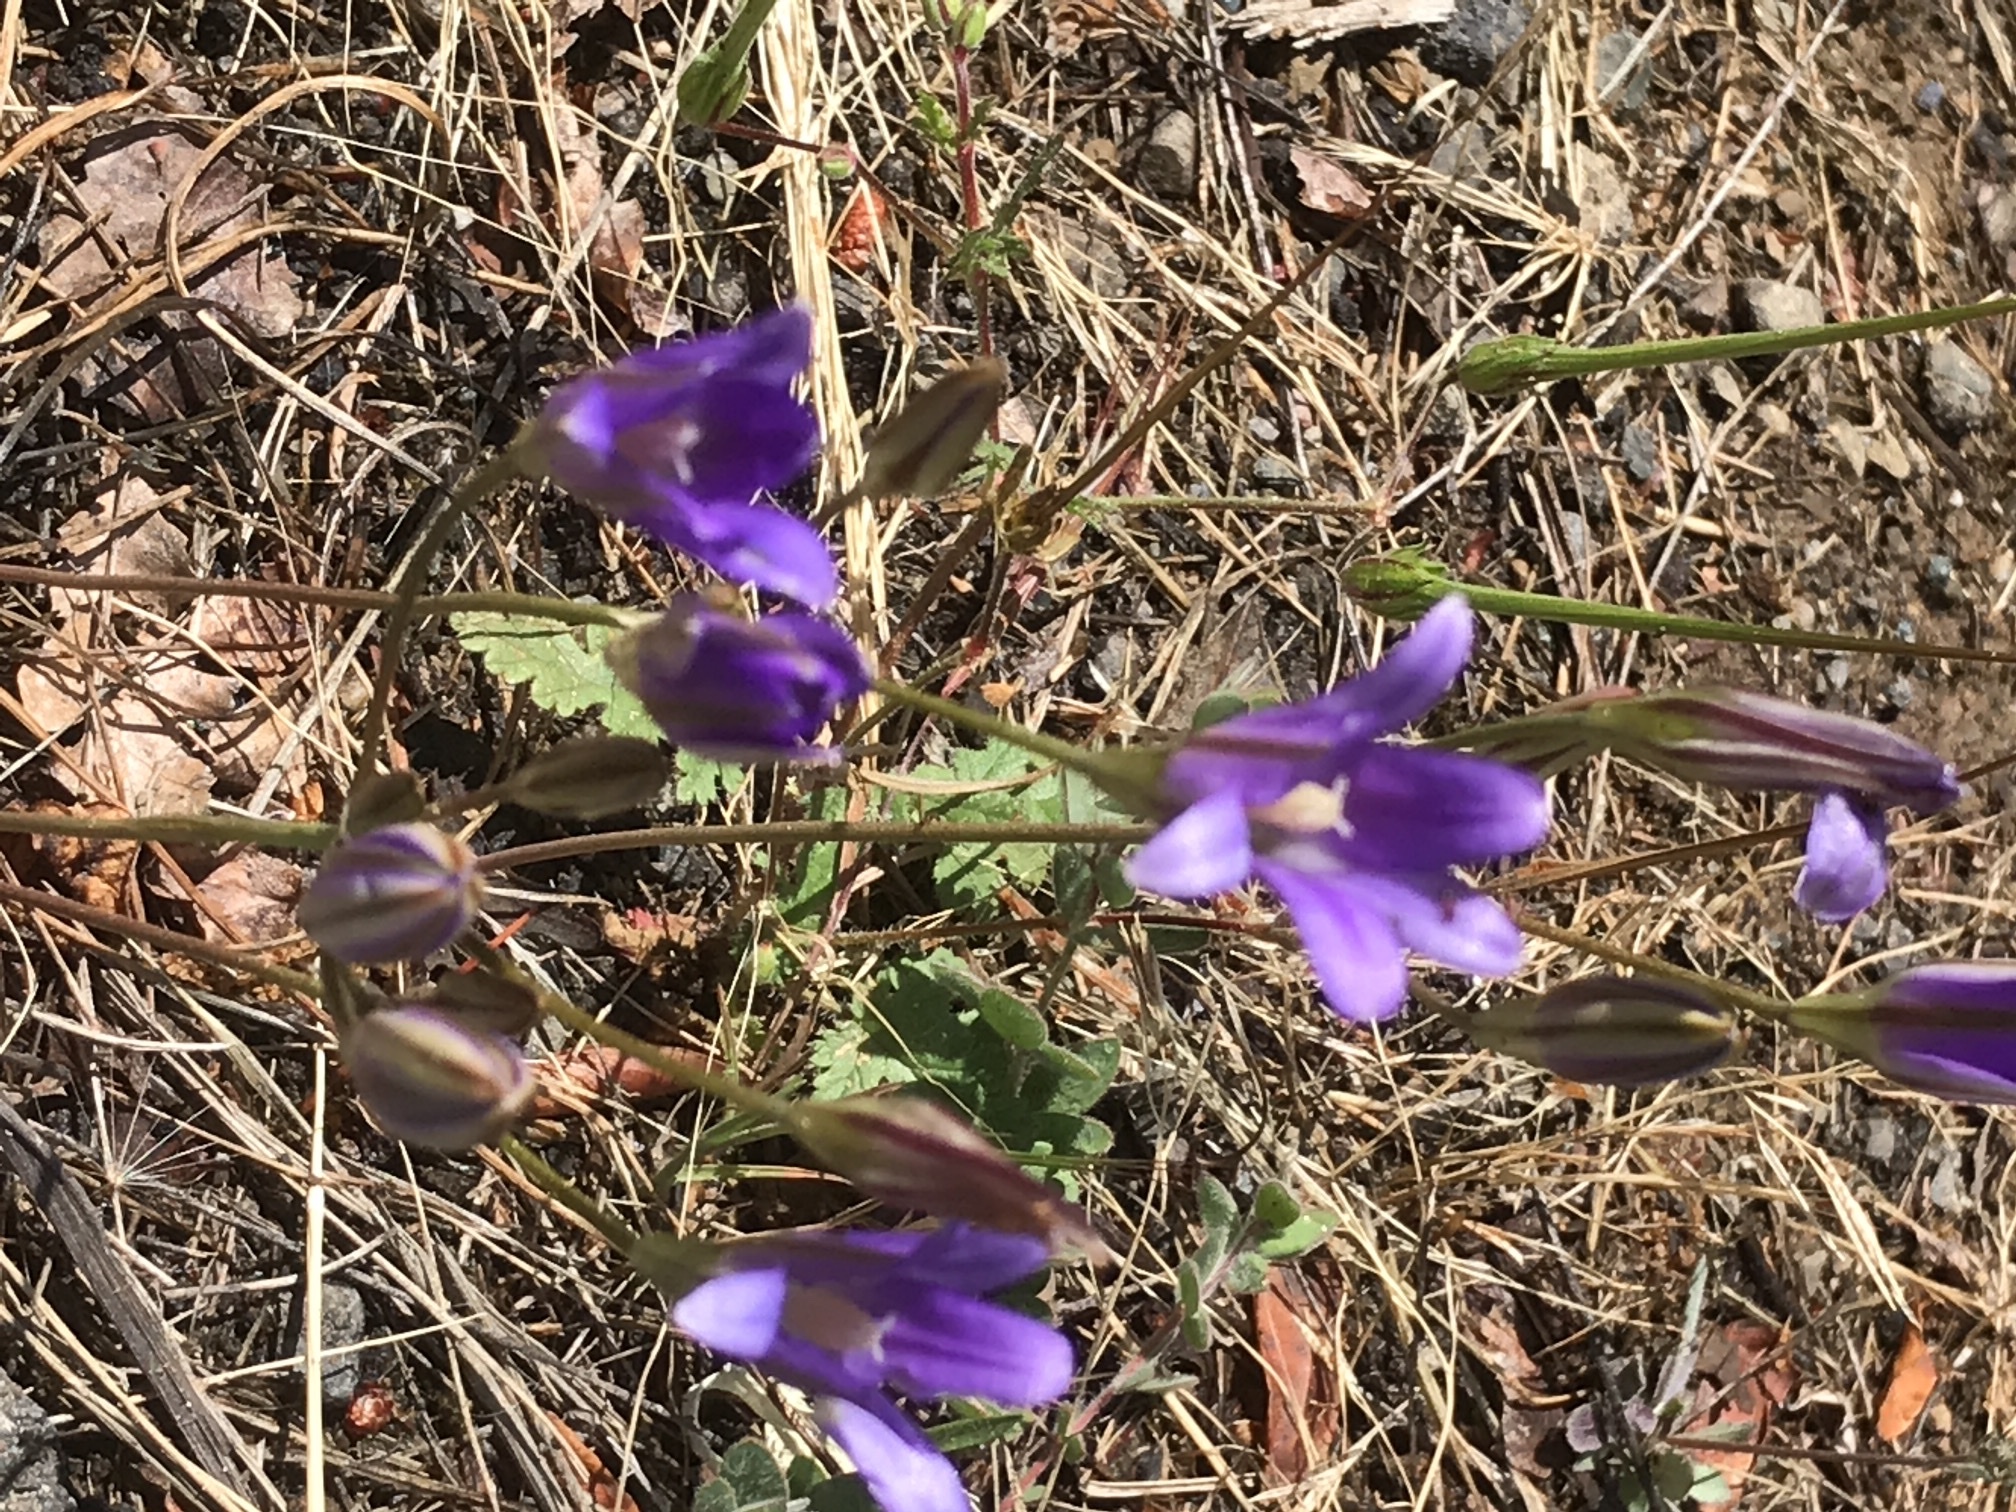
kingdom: Plantae
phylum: Tracheophyta
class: Liliopsida
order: Asparagales
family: Asparagaceae
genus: Brodiaea
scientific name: Brodiaea elegans
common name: Elegant cluster-lily
